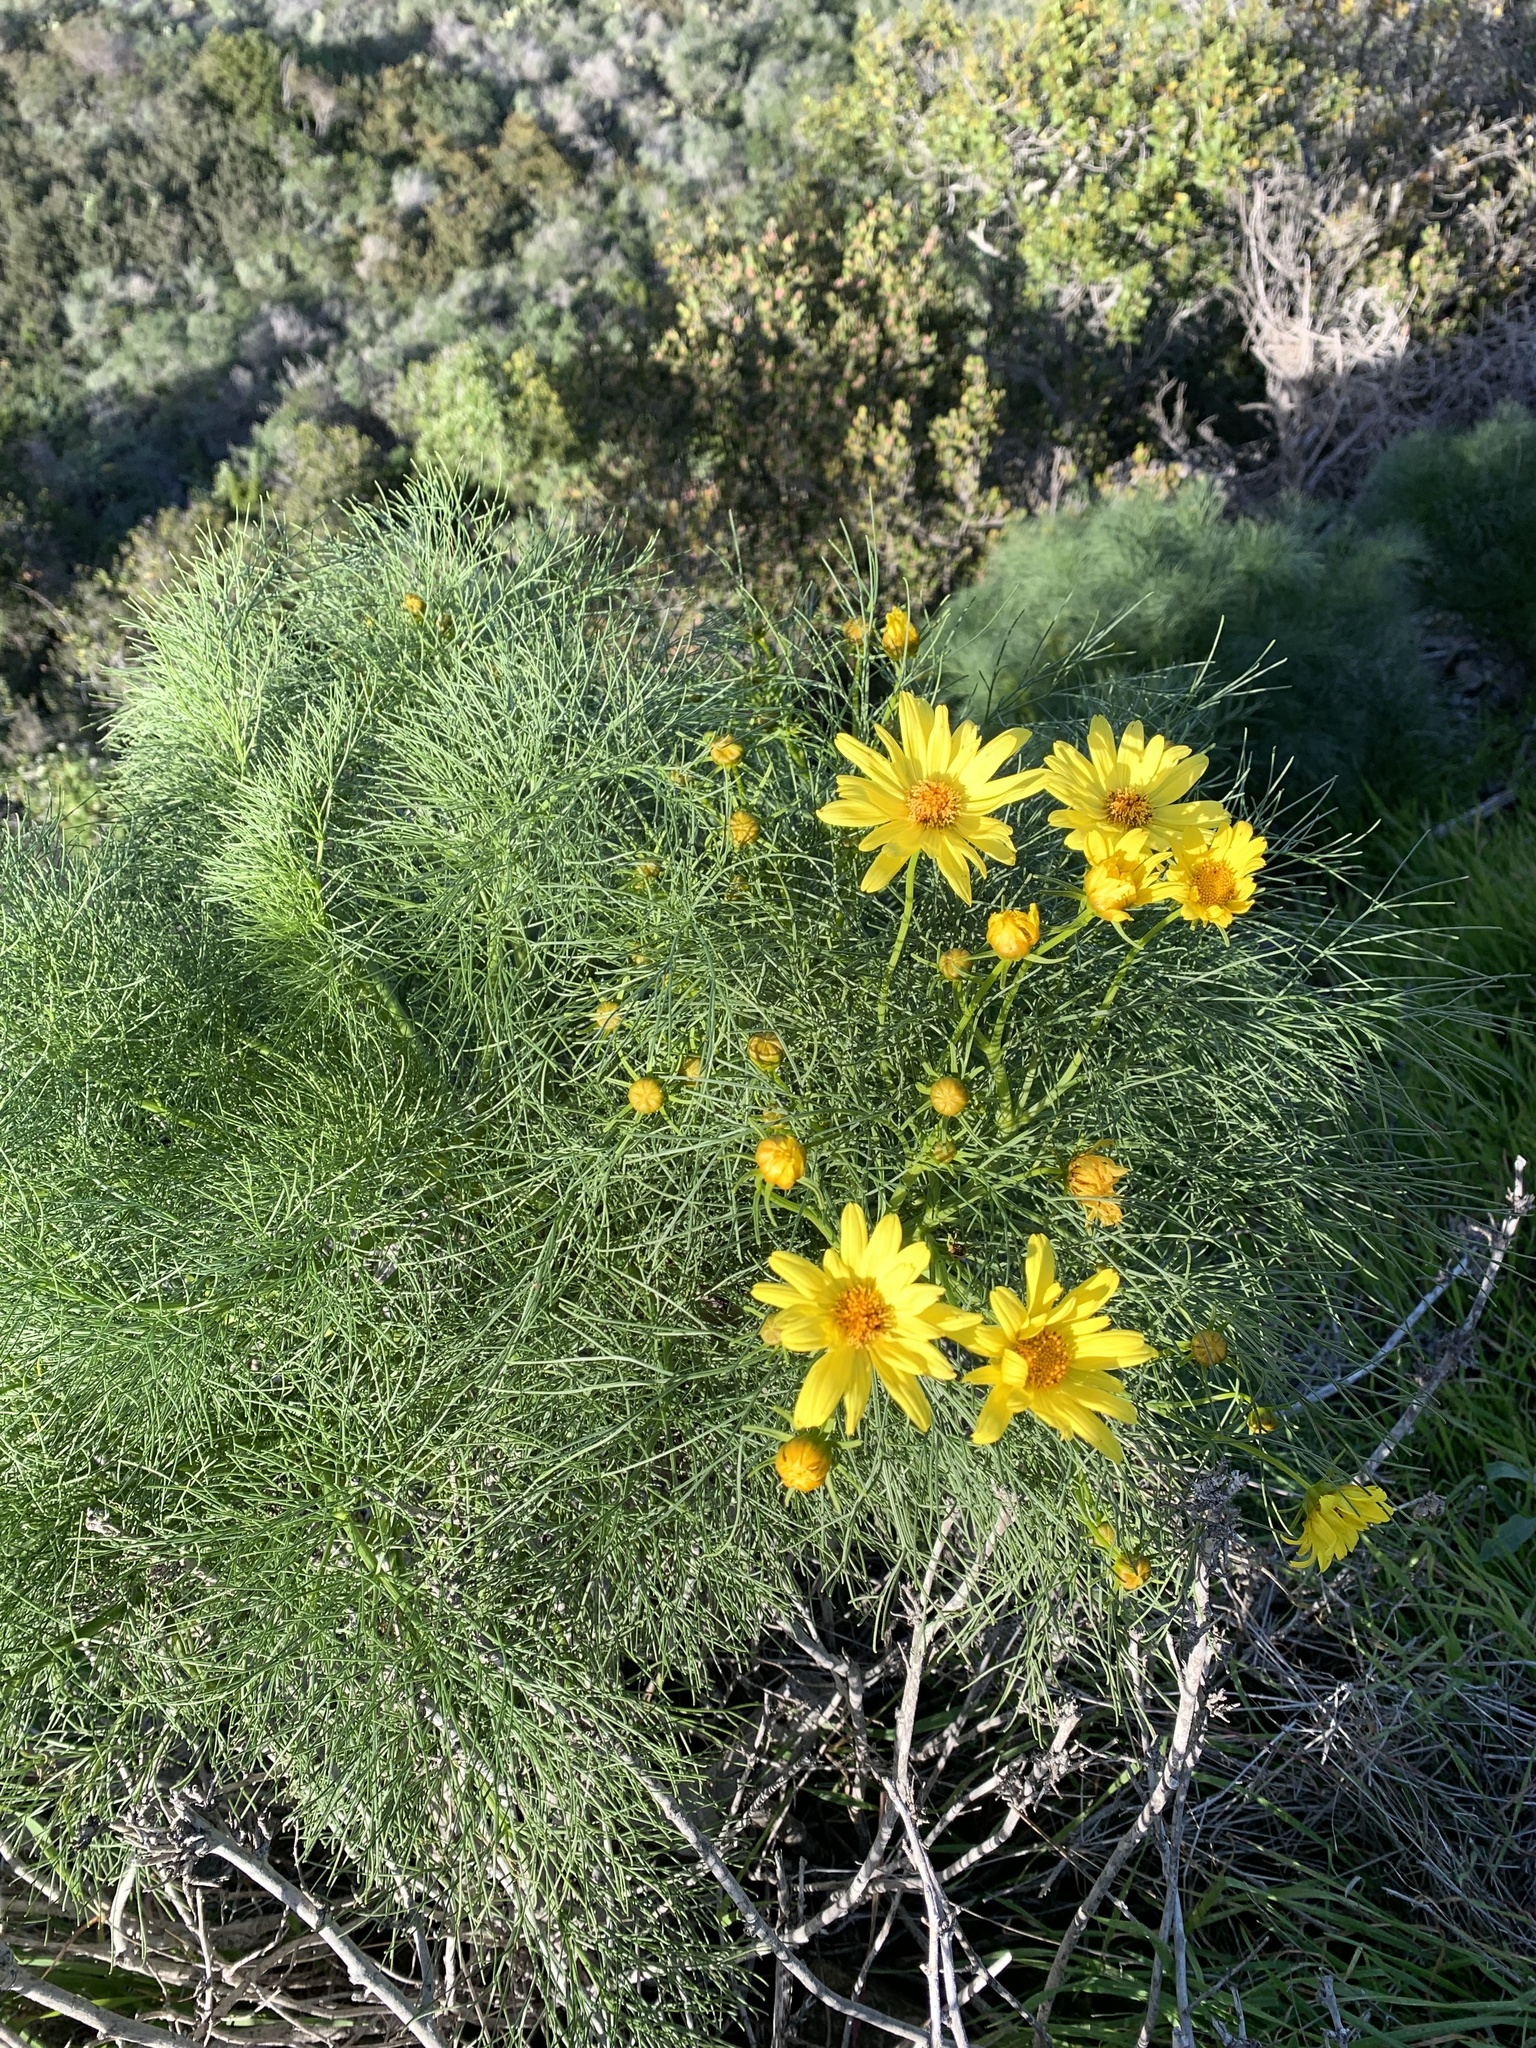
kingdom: Plantae
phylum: Tracheophyta
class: Magnoliopsida
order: Asterales
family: Asteraceae
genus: Coreopsis
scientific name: Coreopsis gigantea
